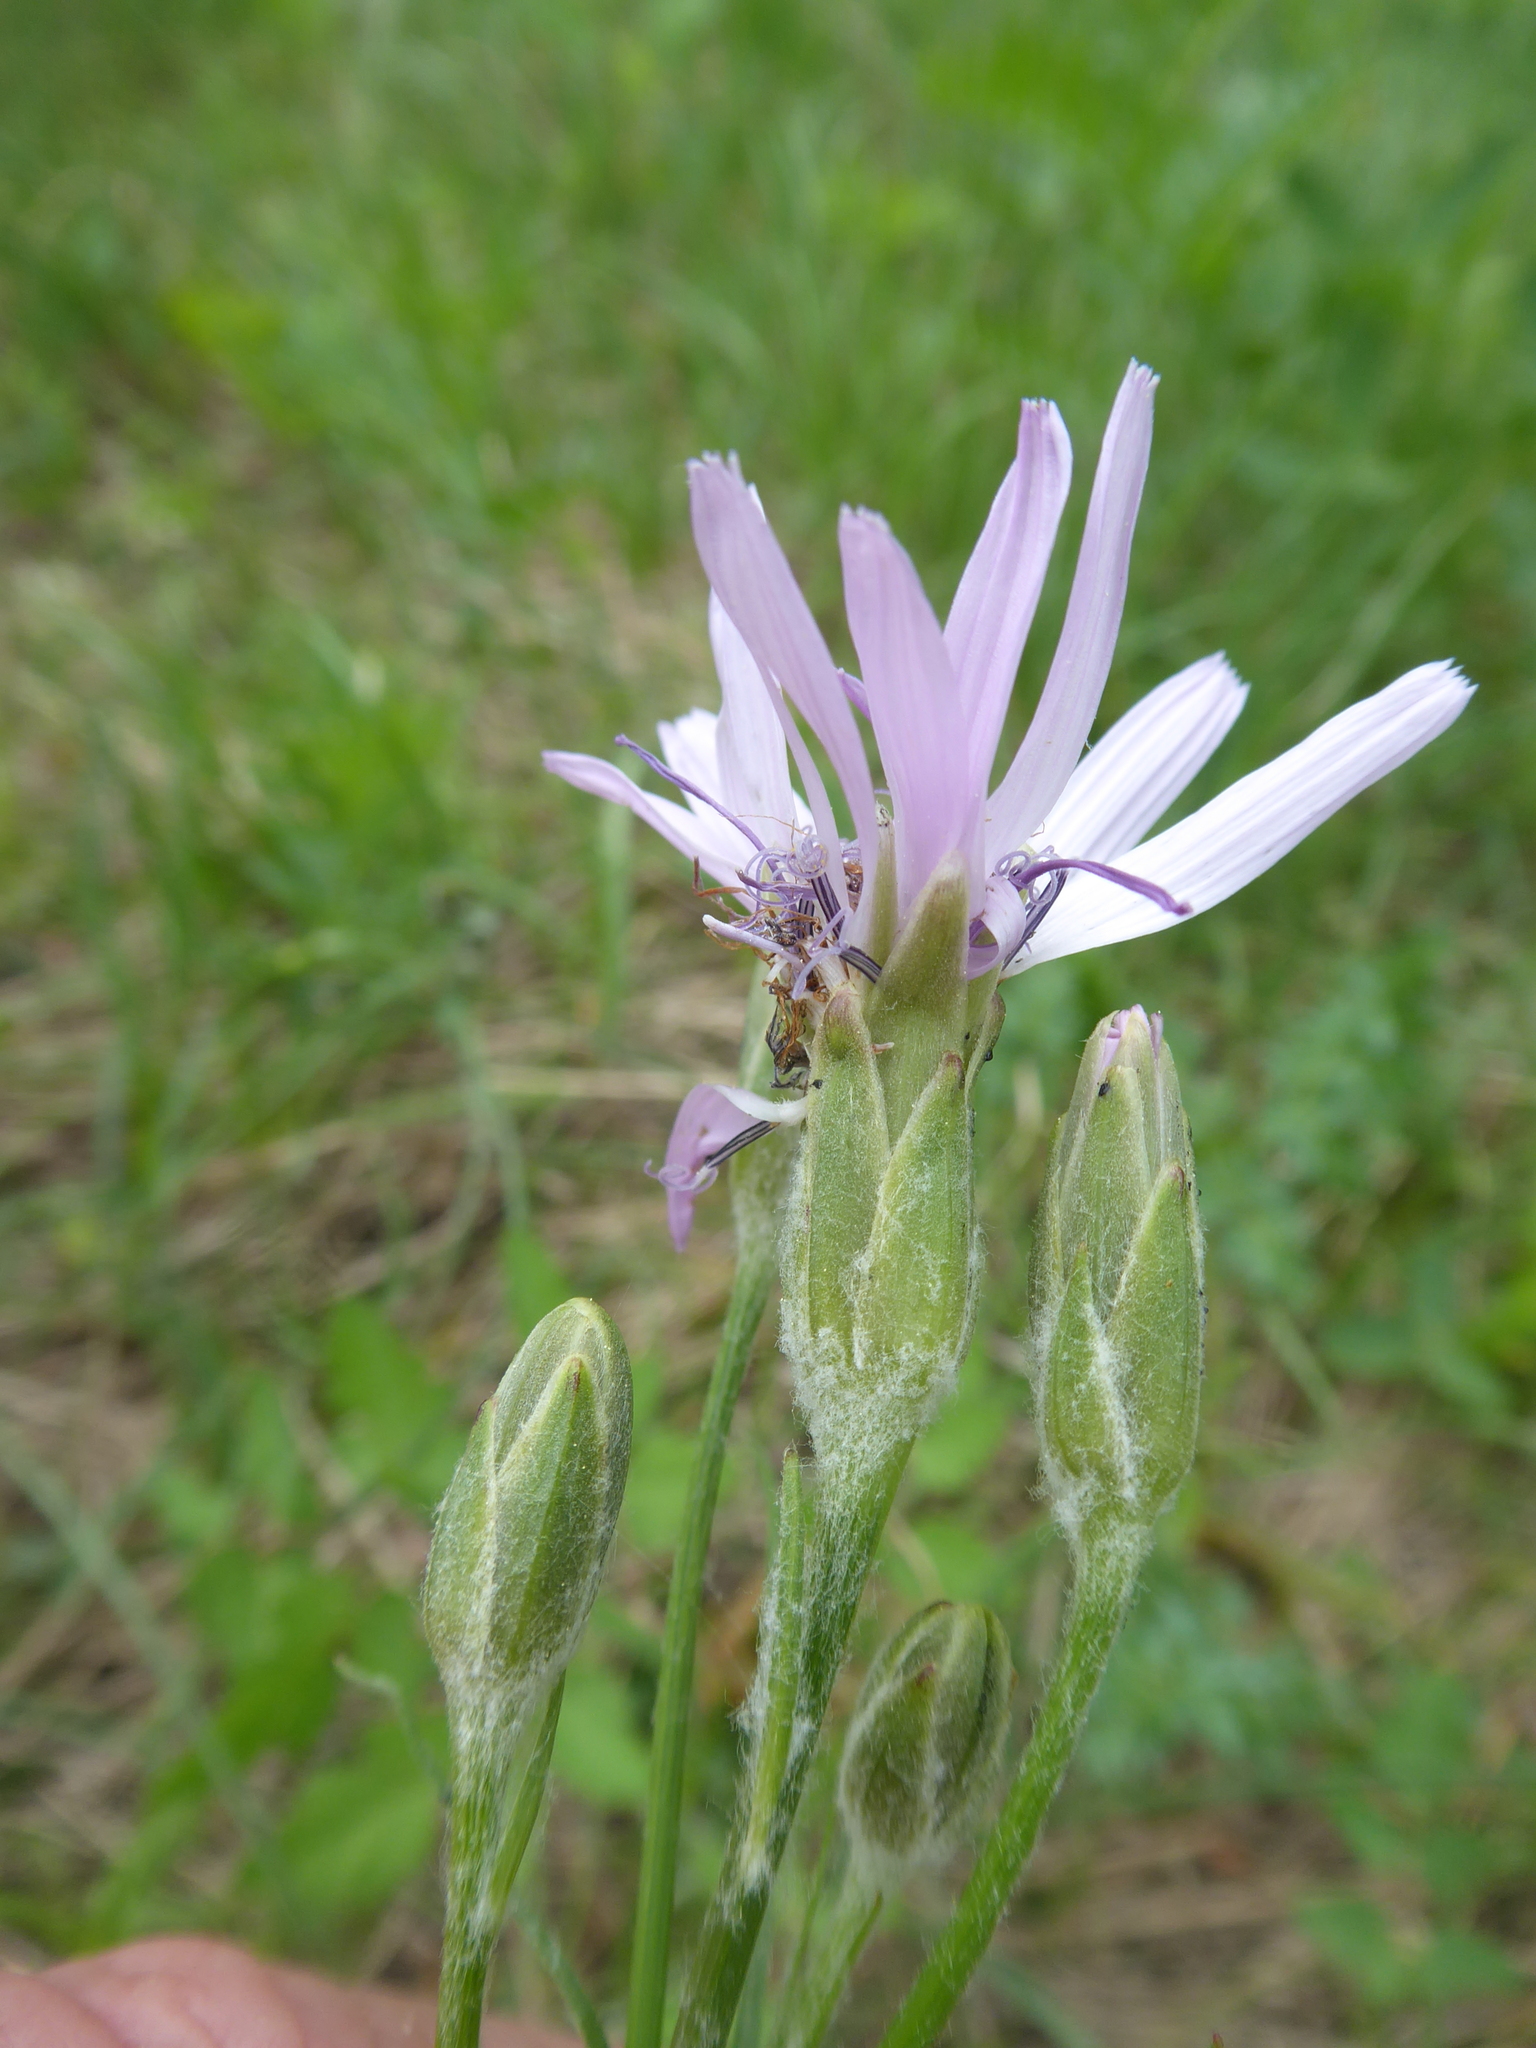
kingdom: Plantae
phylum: Tracheophyta
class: Magnoliopsida
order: Asterales
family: Asteraceae
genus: Scorzonera
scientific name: Scorzonera purpurea
